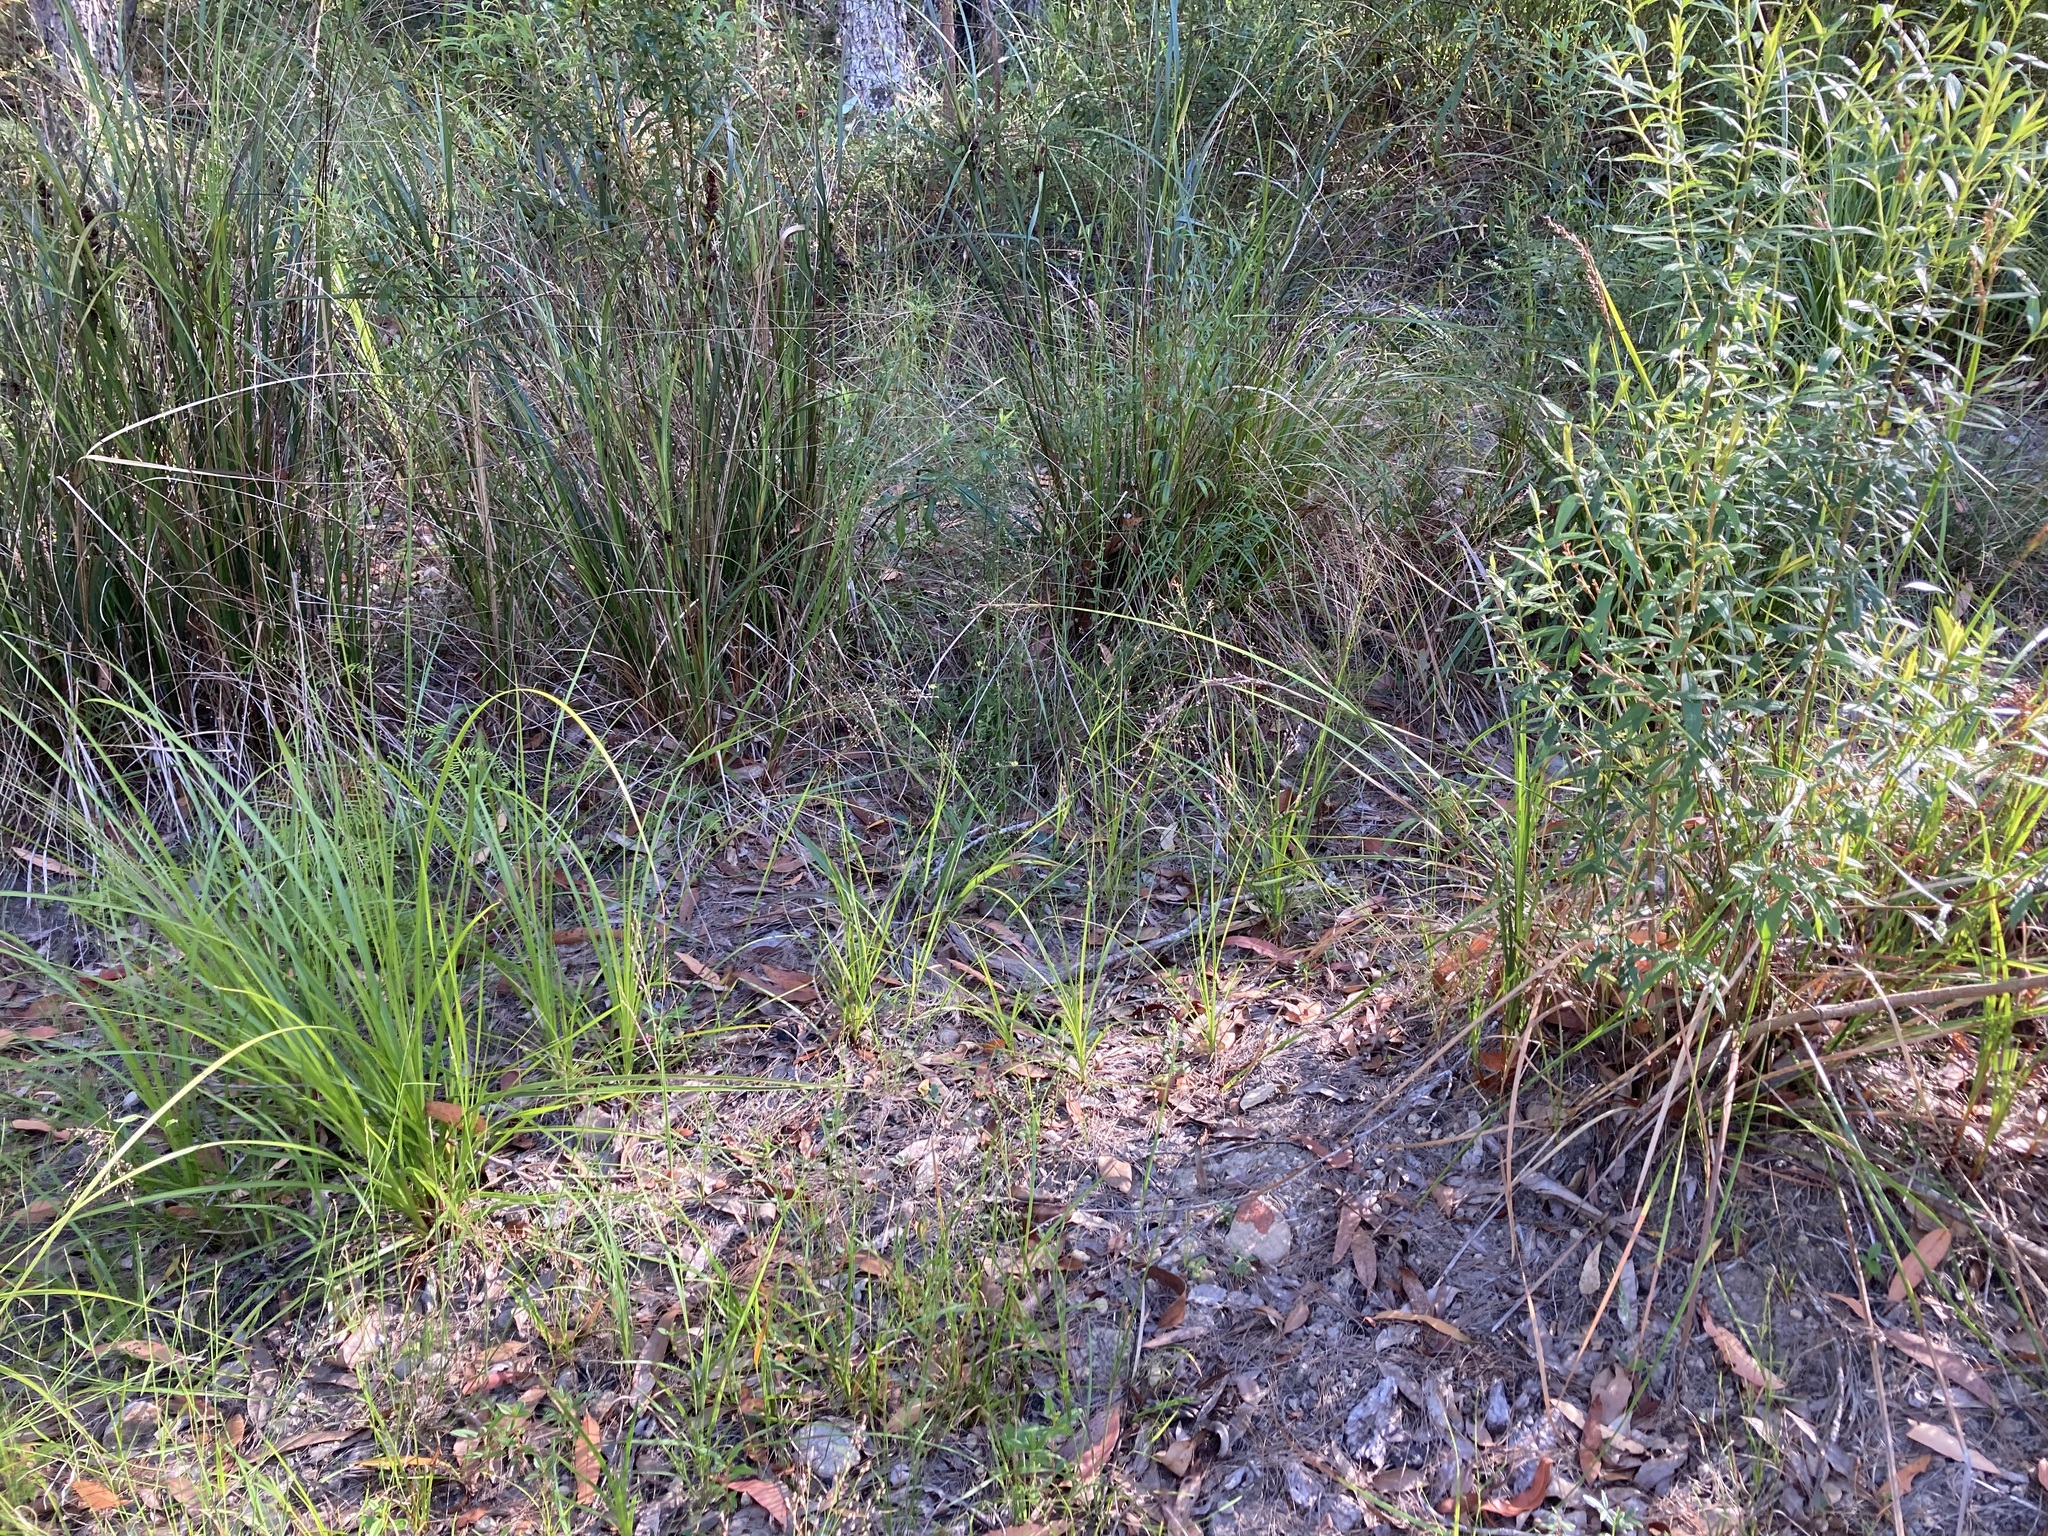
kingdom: Plantae
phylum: Tracheophyta
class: Liliopsida
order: Poales
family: Poaceae
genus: Panicum
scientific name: Panicum simile
